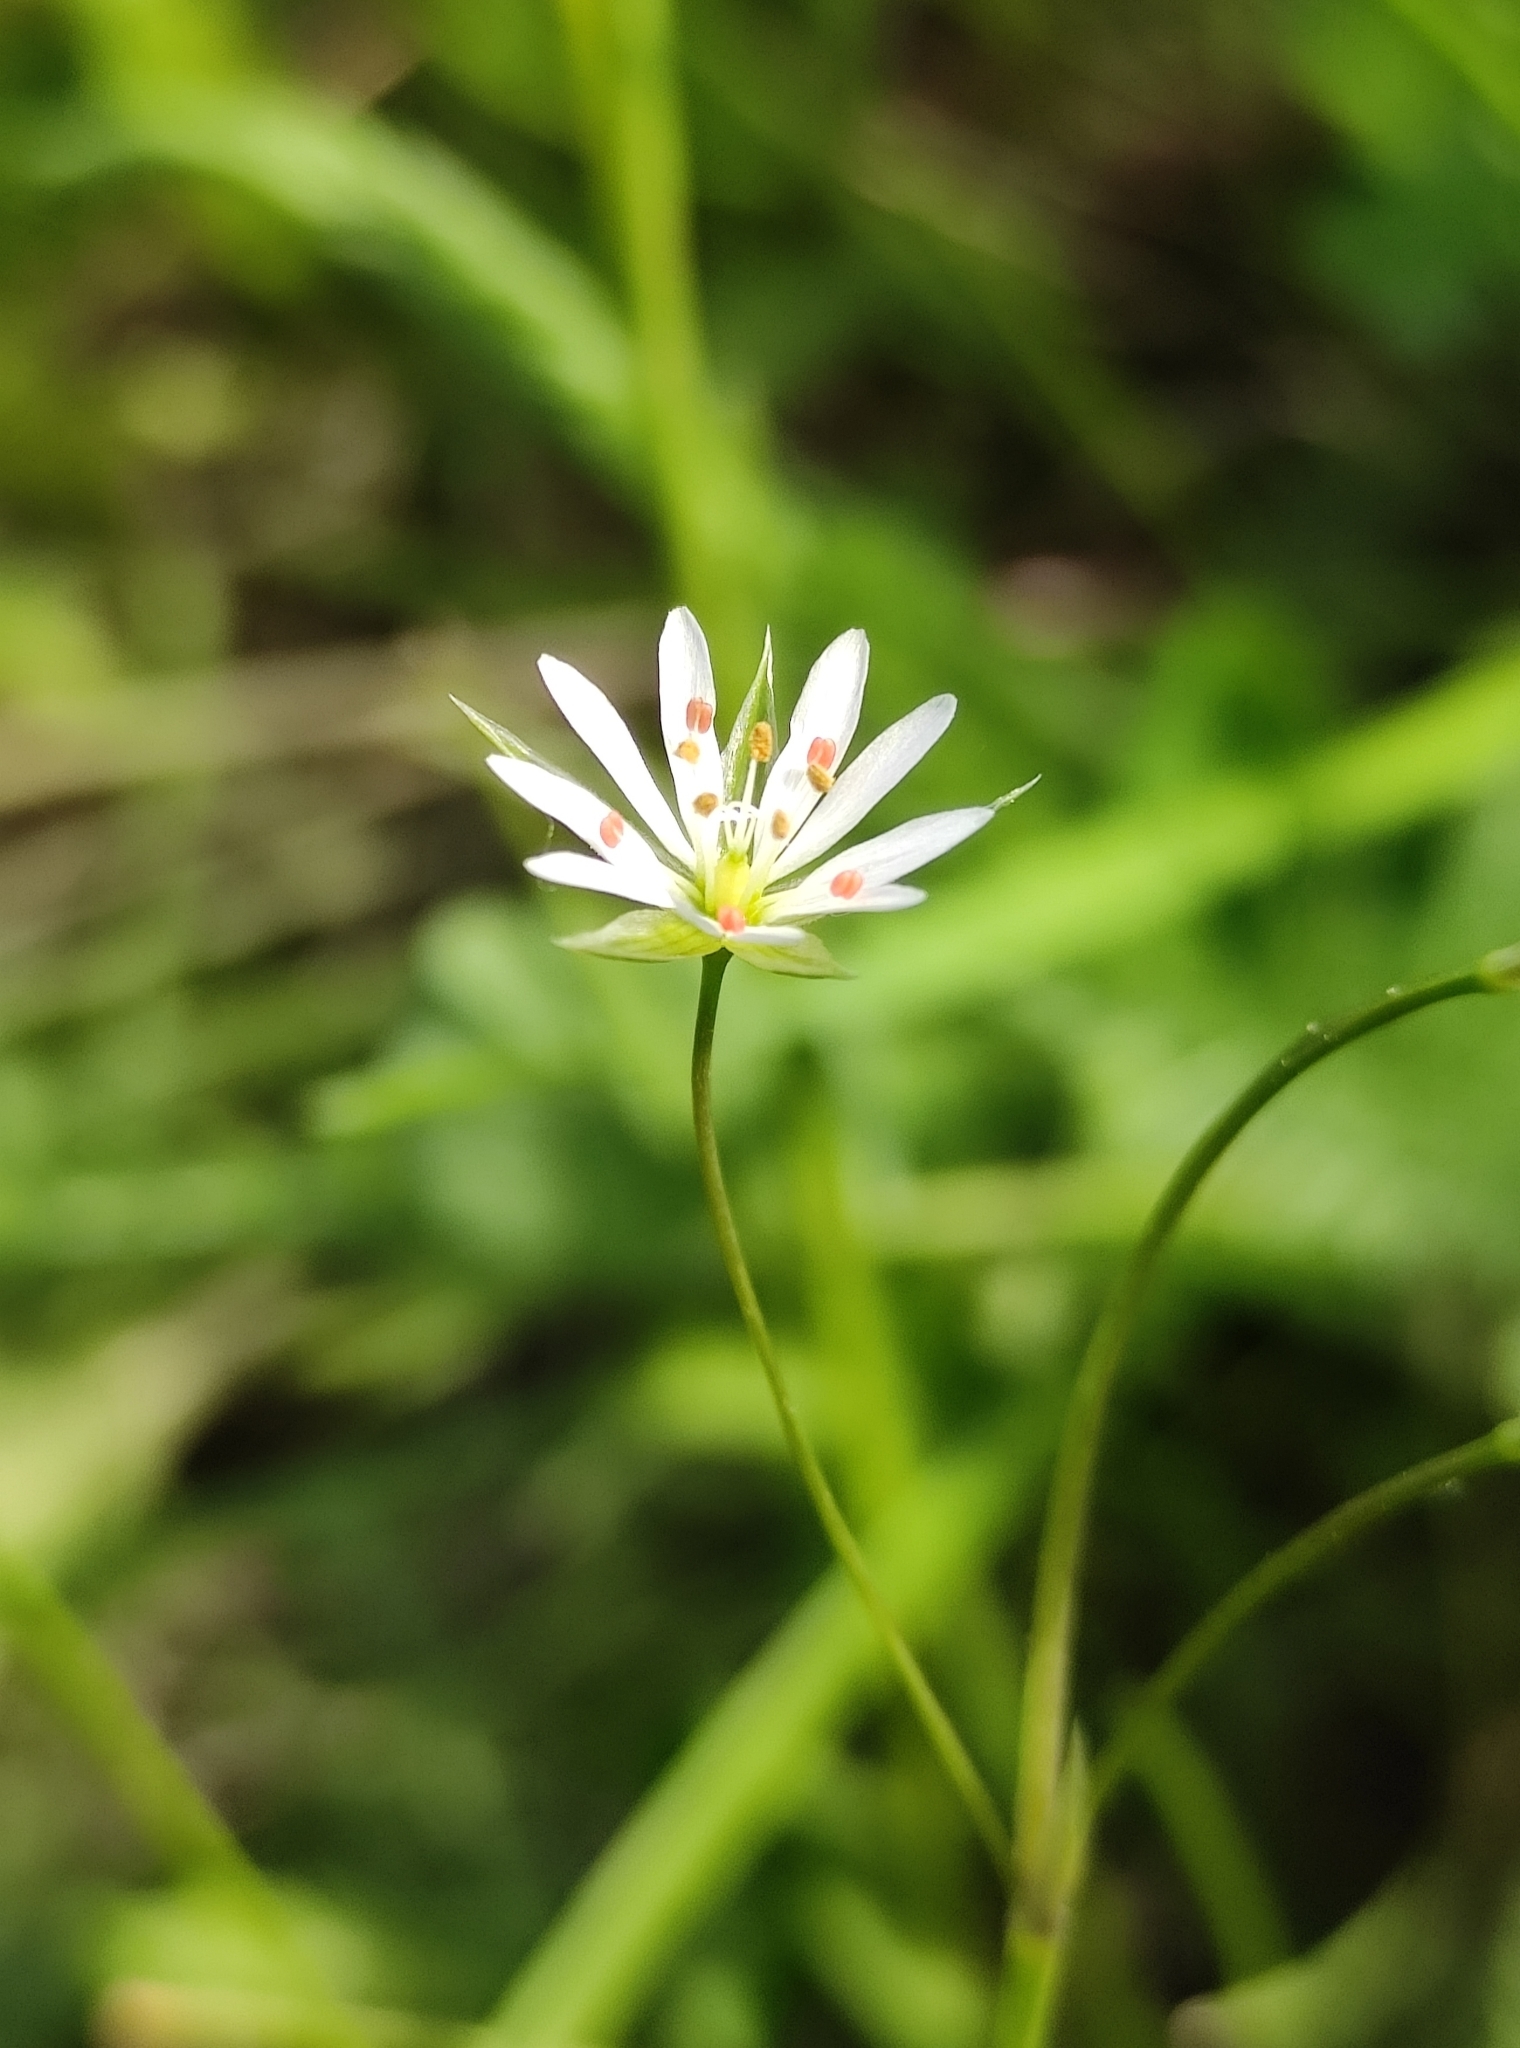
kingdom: Plantae
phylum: Tracheophyta
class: Magnoliopsida
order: Caryophyllales
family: Caryophyllaceae
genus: Stellaria
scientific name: Stellaria graminea
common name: Grass-like starwort
